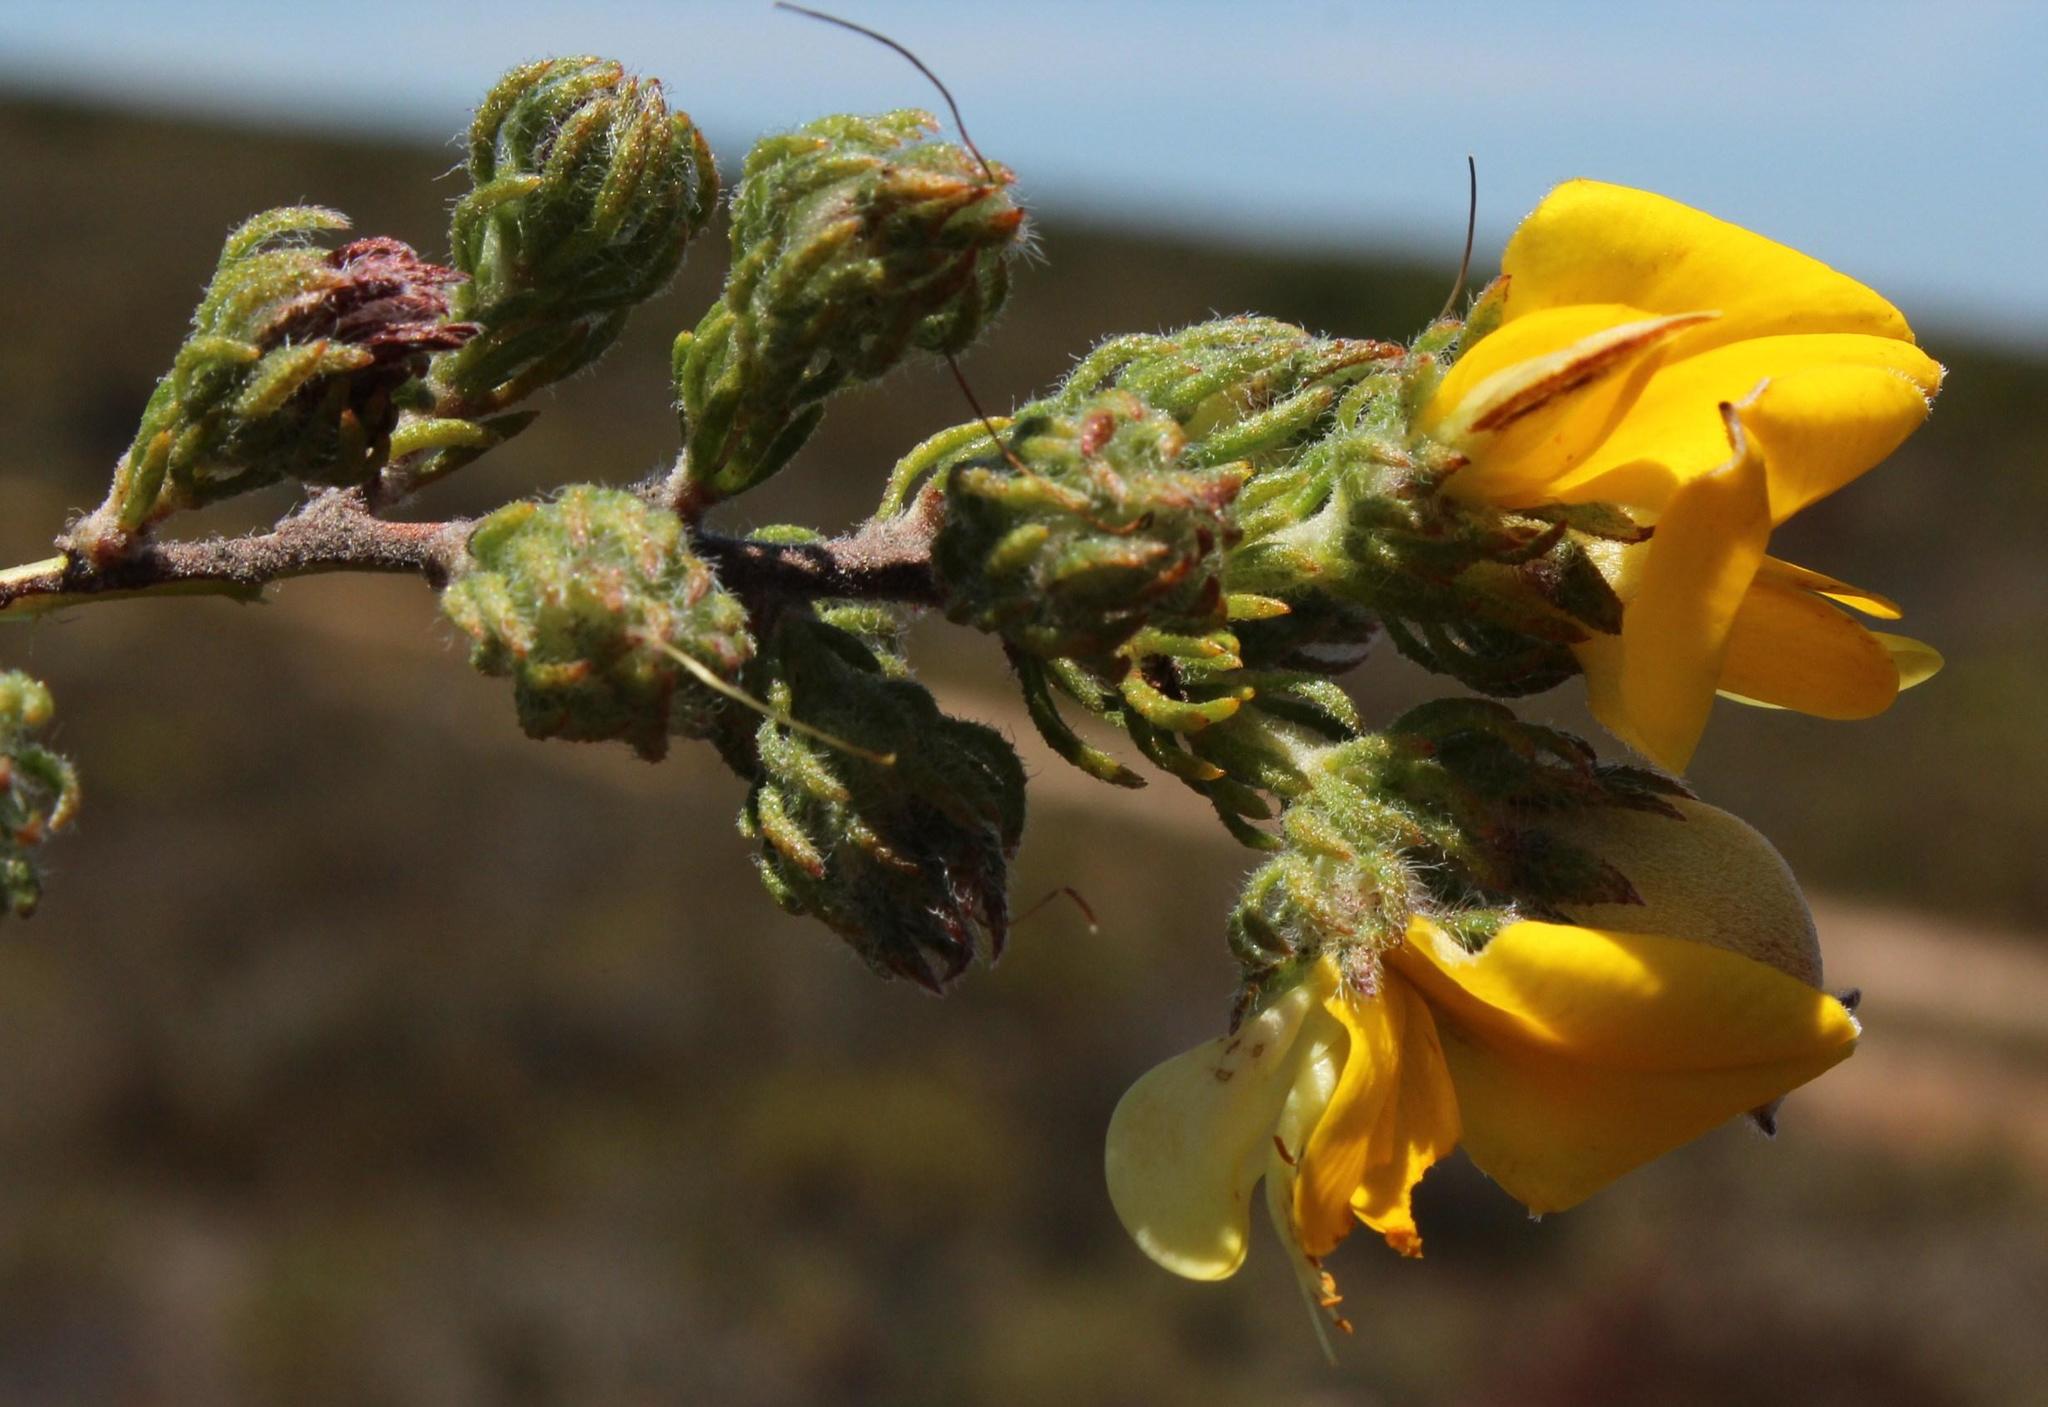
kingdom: Plantae
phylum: Tracheophyta
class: Magnoliopsida
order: Fabales
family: Fabaceae
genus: Aspalathus
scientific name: Aspalathus ciliaris
